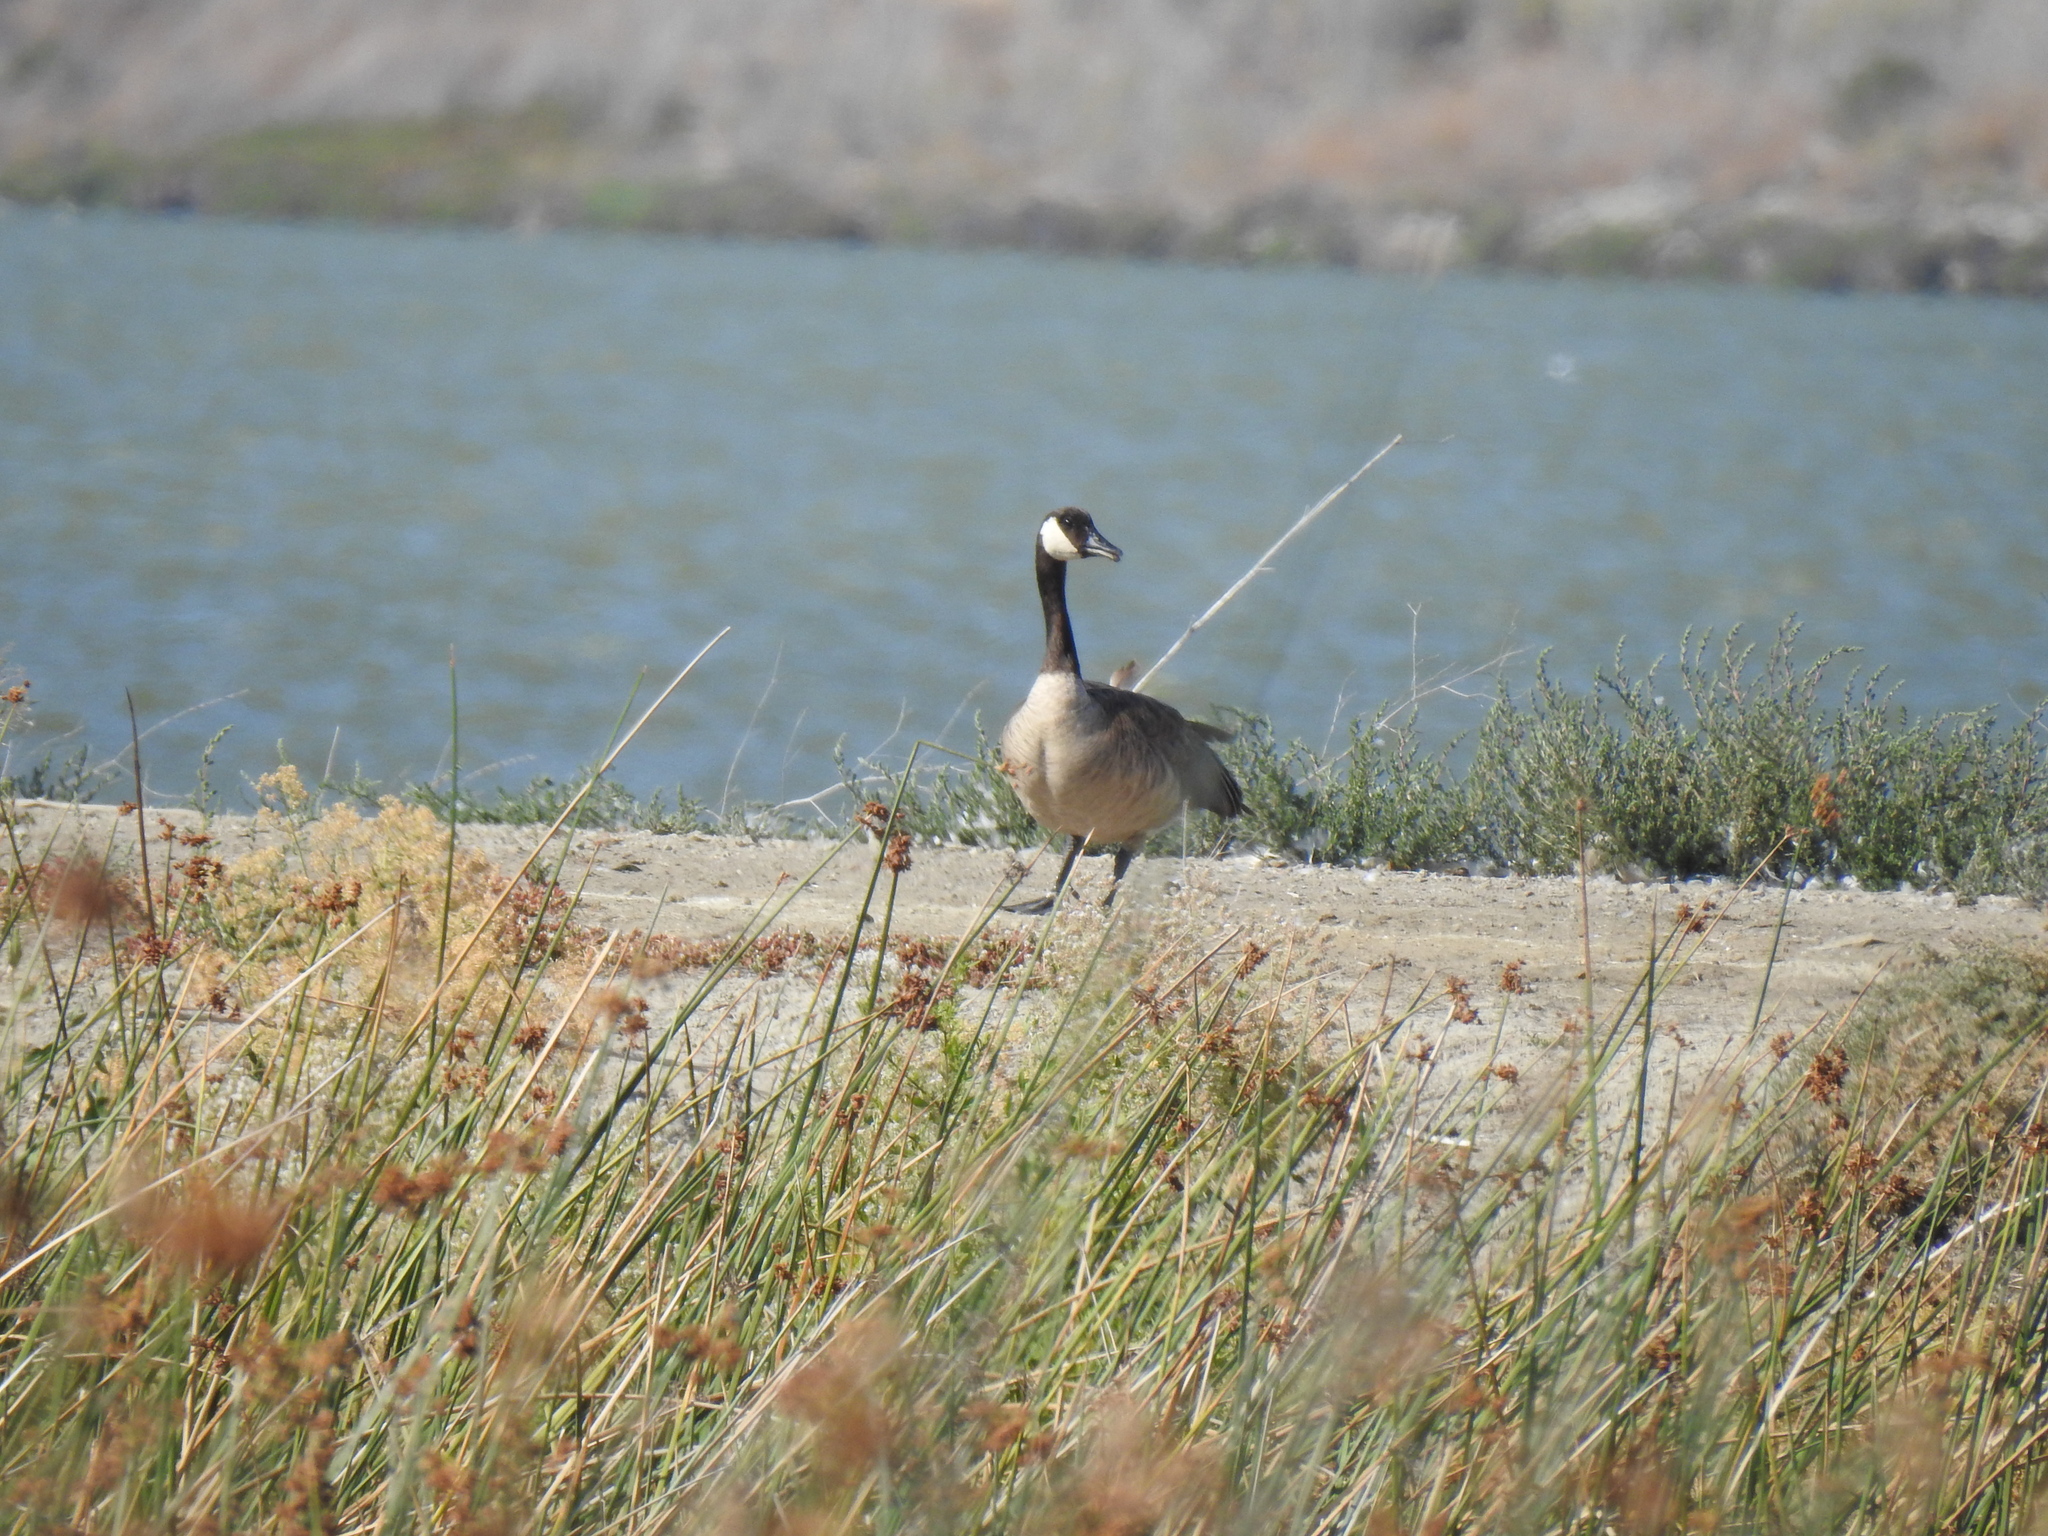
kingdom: Animalia
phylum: Chordata
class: Aves
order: Anseriformes
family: Anatidae
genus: Branta
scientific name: Branta canadensis
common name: Canada goose
